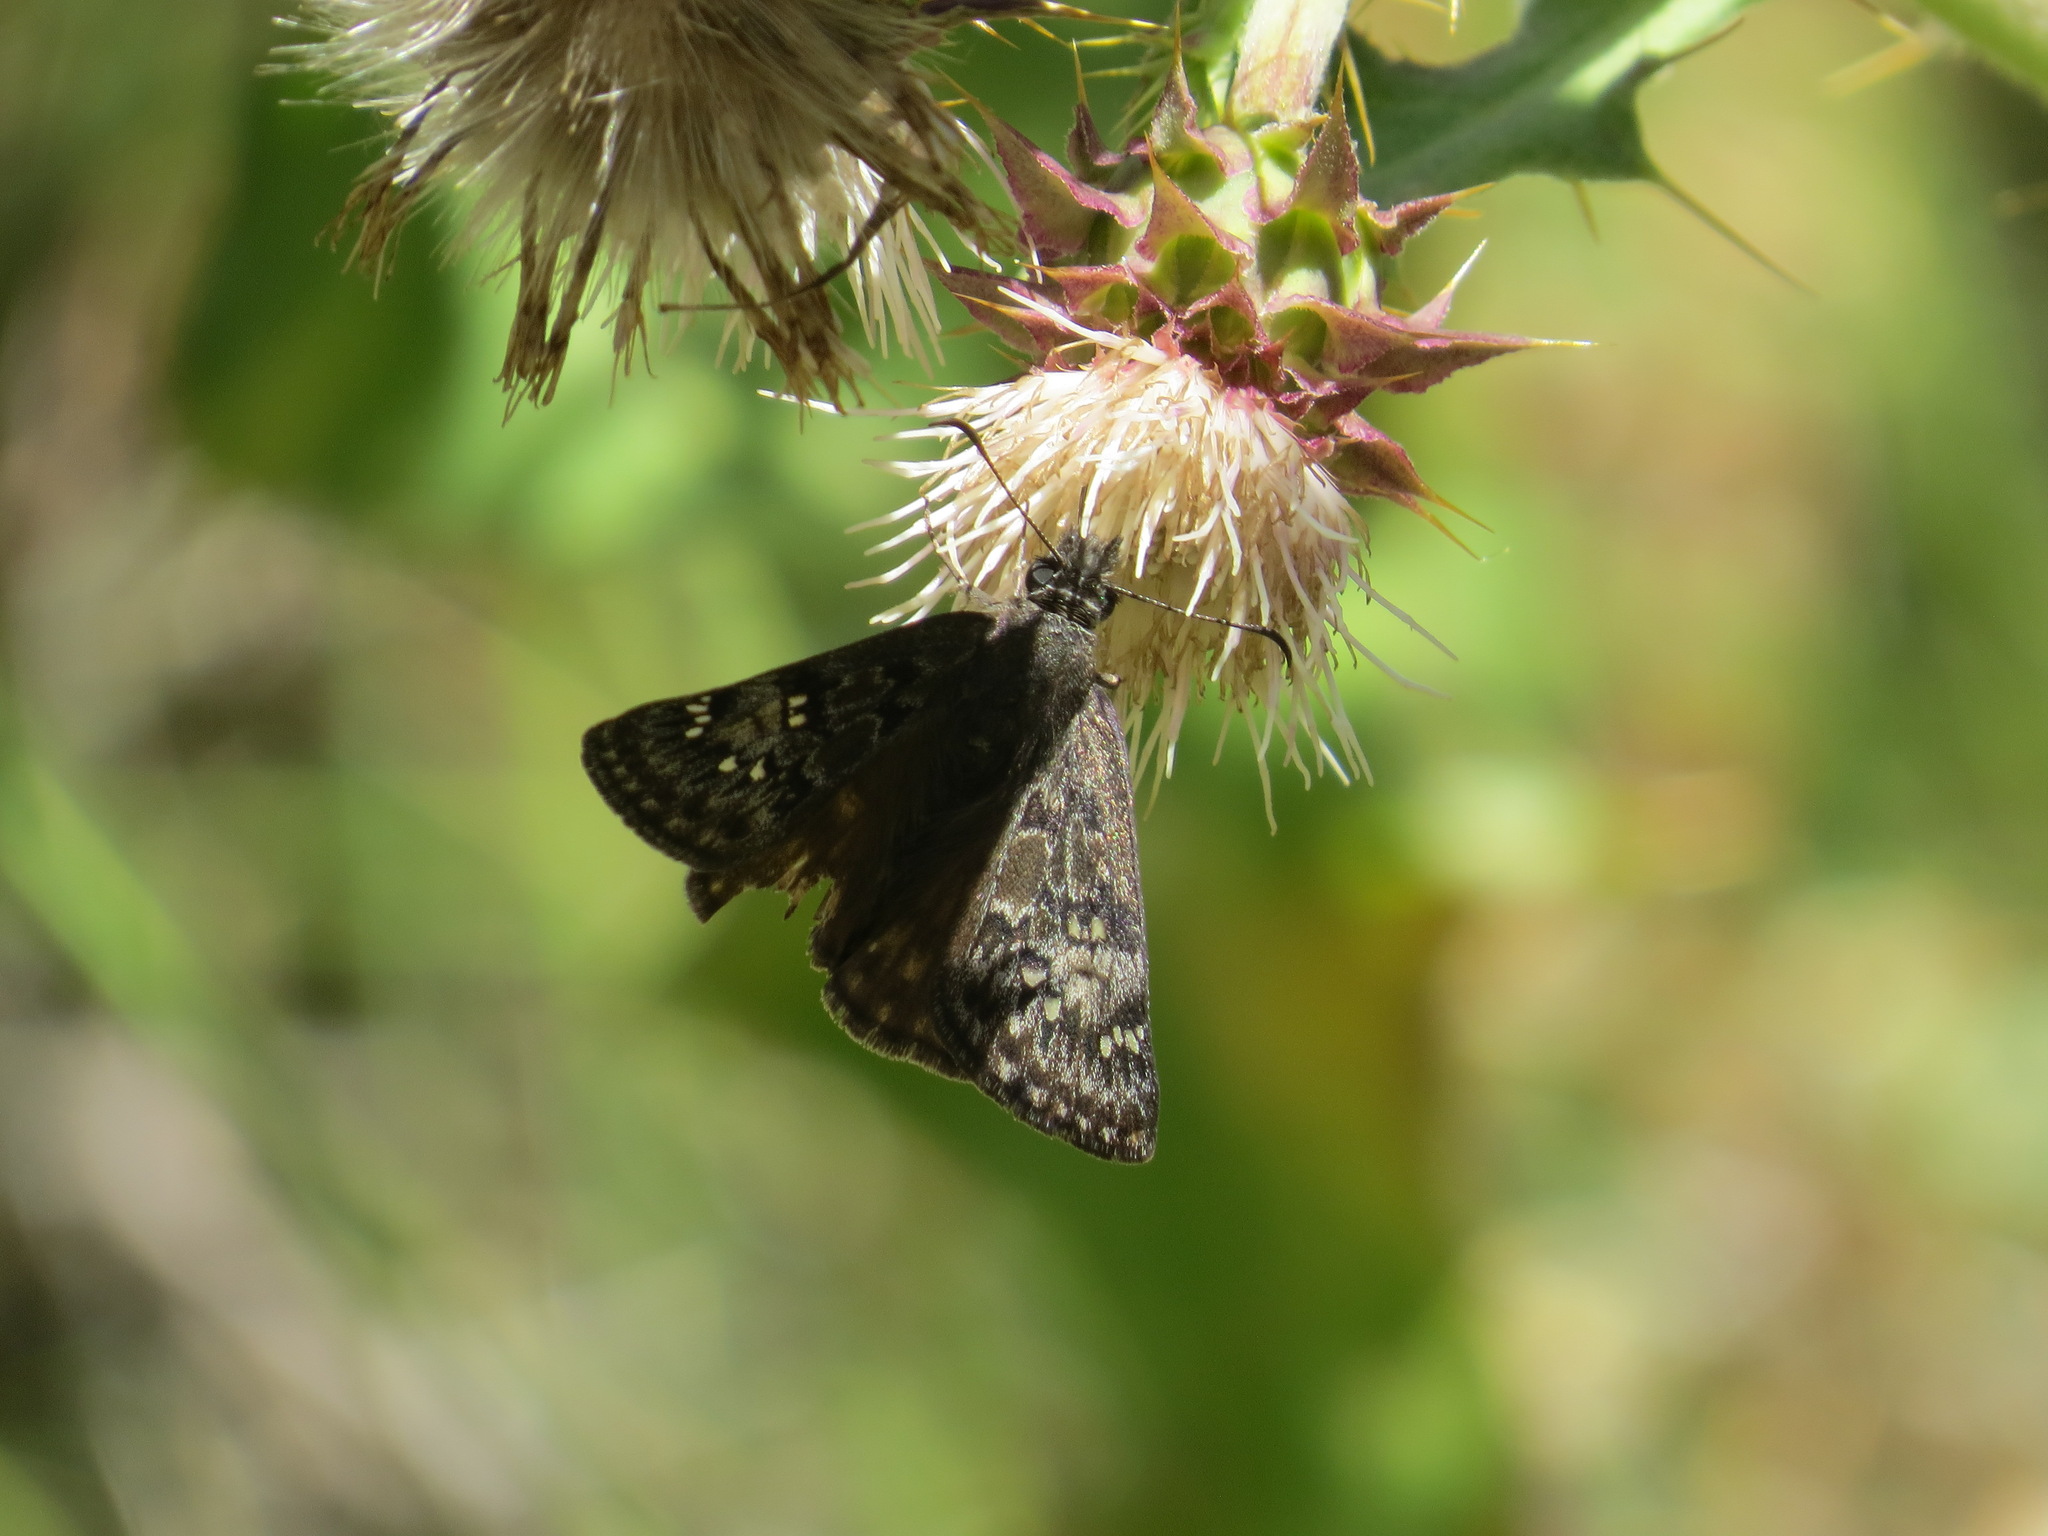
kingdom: Plantae
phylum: Tracheophyta
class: Magnoliopsida
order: Asterales
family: Asteraceae
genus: Cirsium
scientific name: Cirsium fontinale
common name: Fountain thistle
